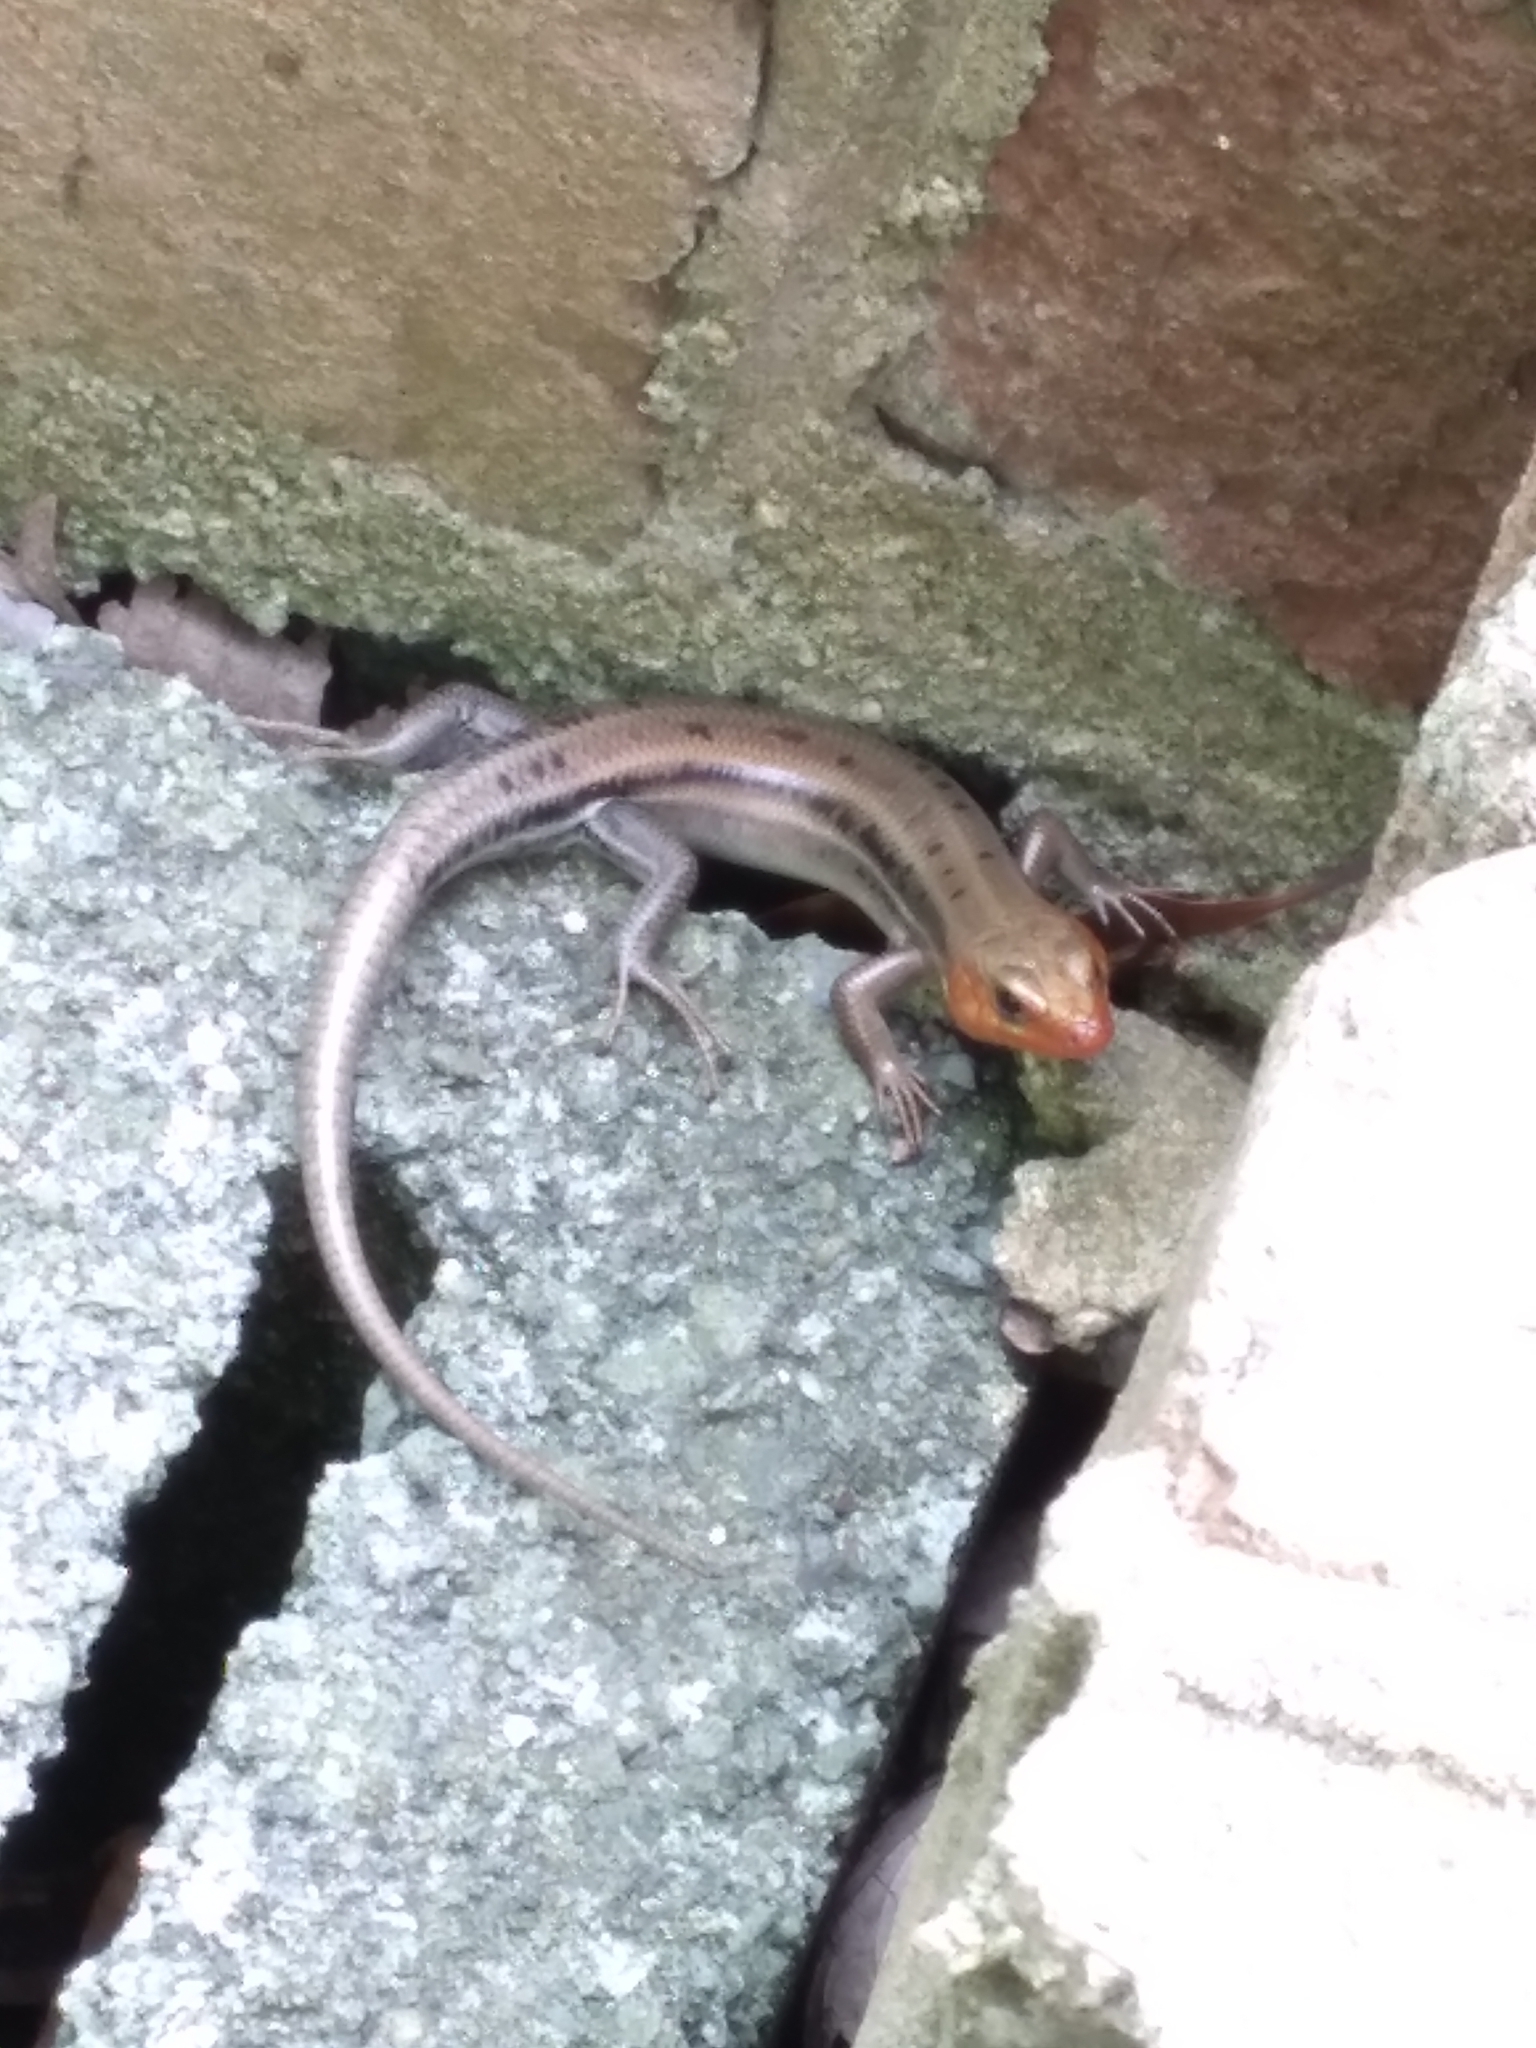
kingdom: Animalia
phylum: Chordata
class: Squamata
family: Scincidae
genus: Plestiodon
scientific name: Plestiodon fasciatus
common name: Five-lined skink
